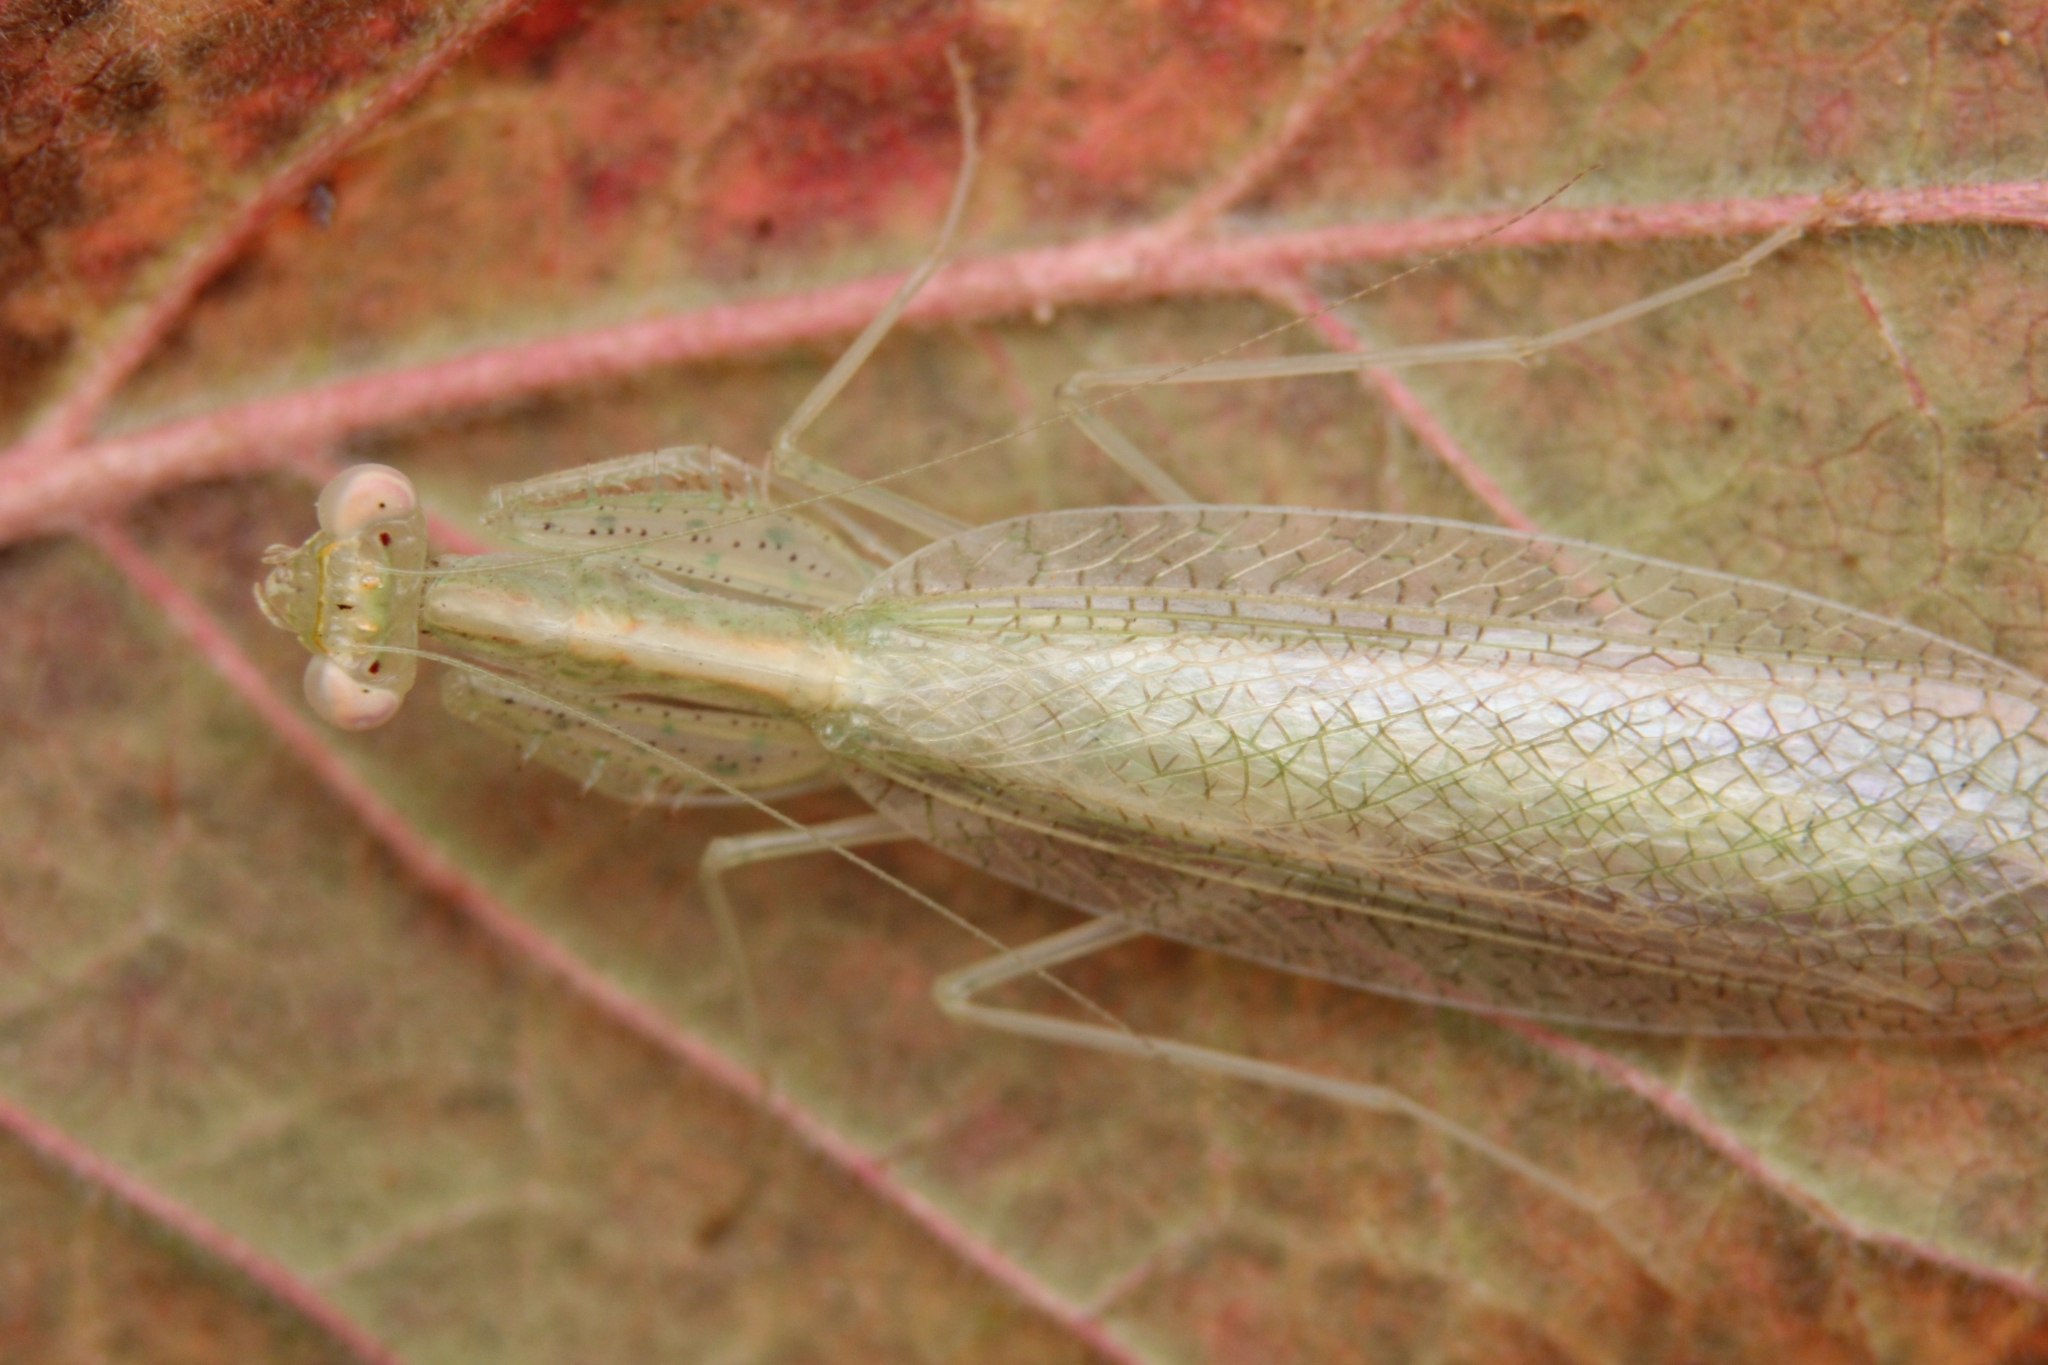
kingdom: Animalia
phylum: Arthropoda
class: Insecta
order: Mantodea
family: Nanomantidae
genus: Negromantis
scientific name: Negromantis gracillima
